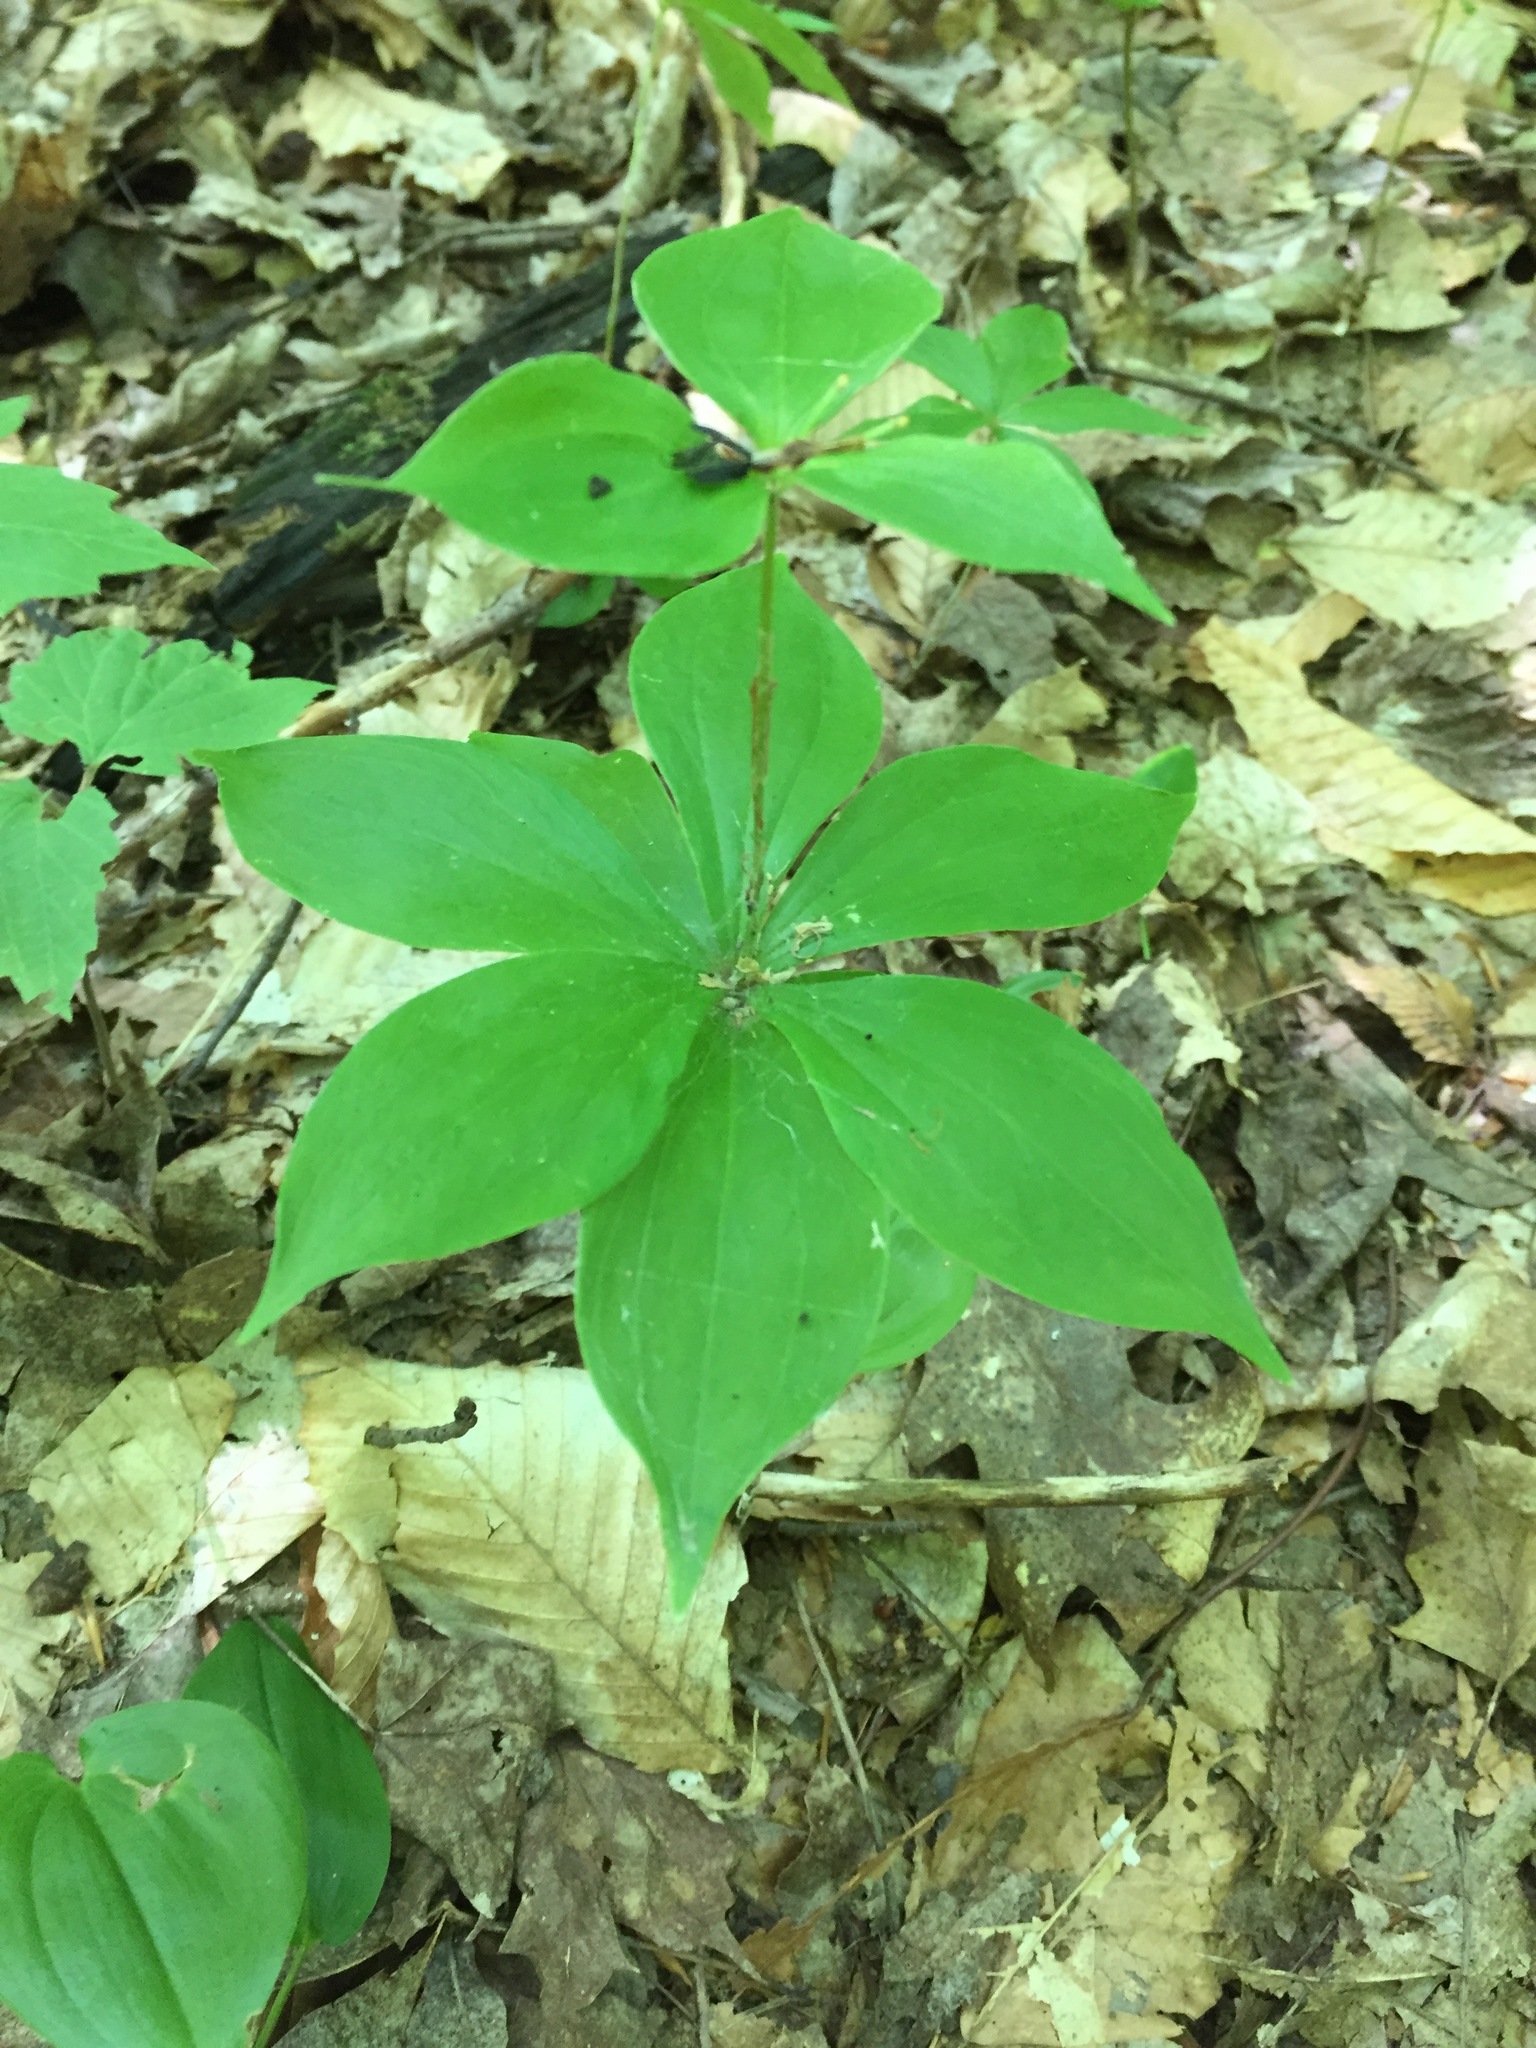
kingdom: Plantae
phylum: Tracheophyta
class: Liliopsida
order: Liliales
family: Liliaceae
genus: Medeola
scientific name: Medeola virginiana
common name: Indian cucumber-root
